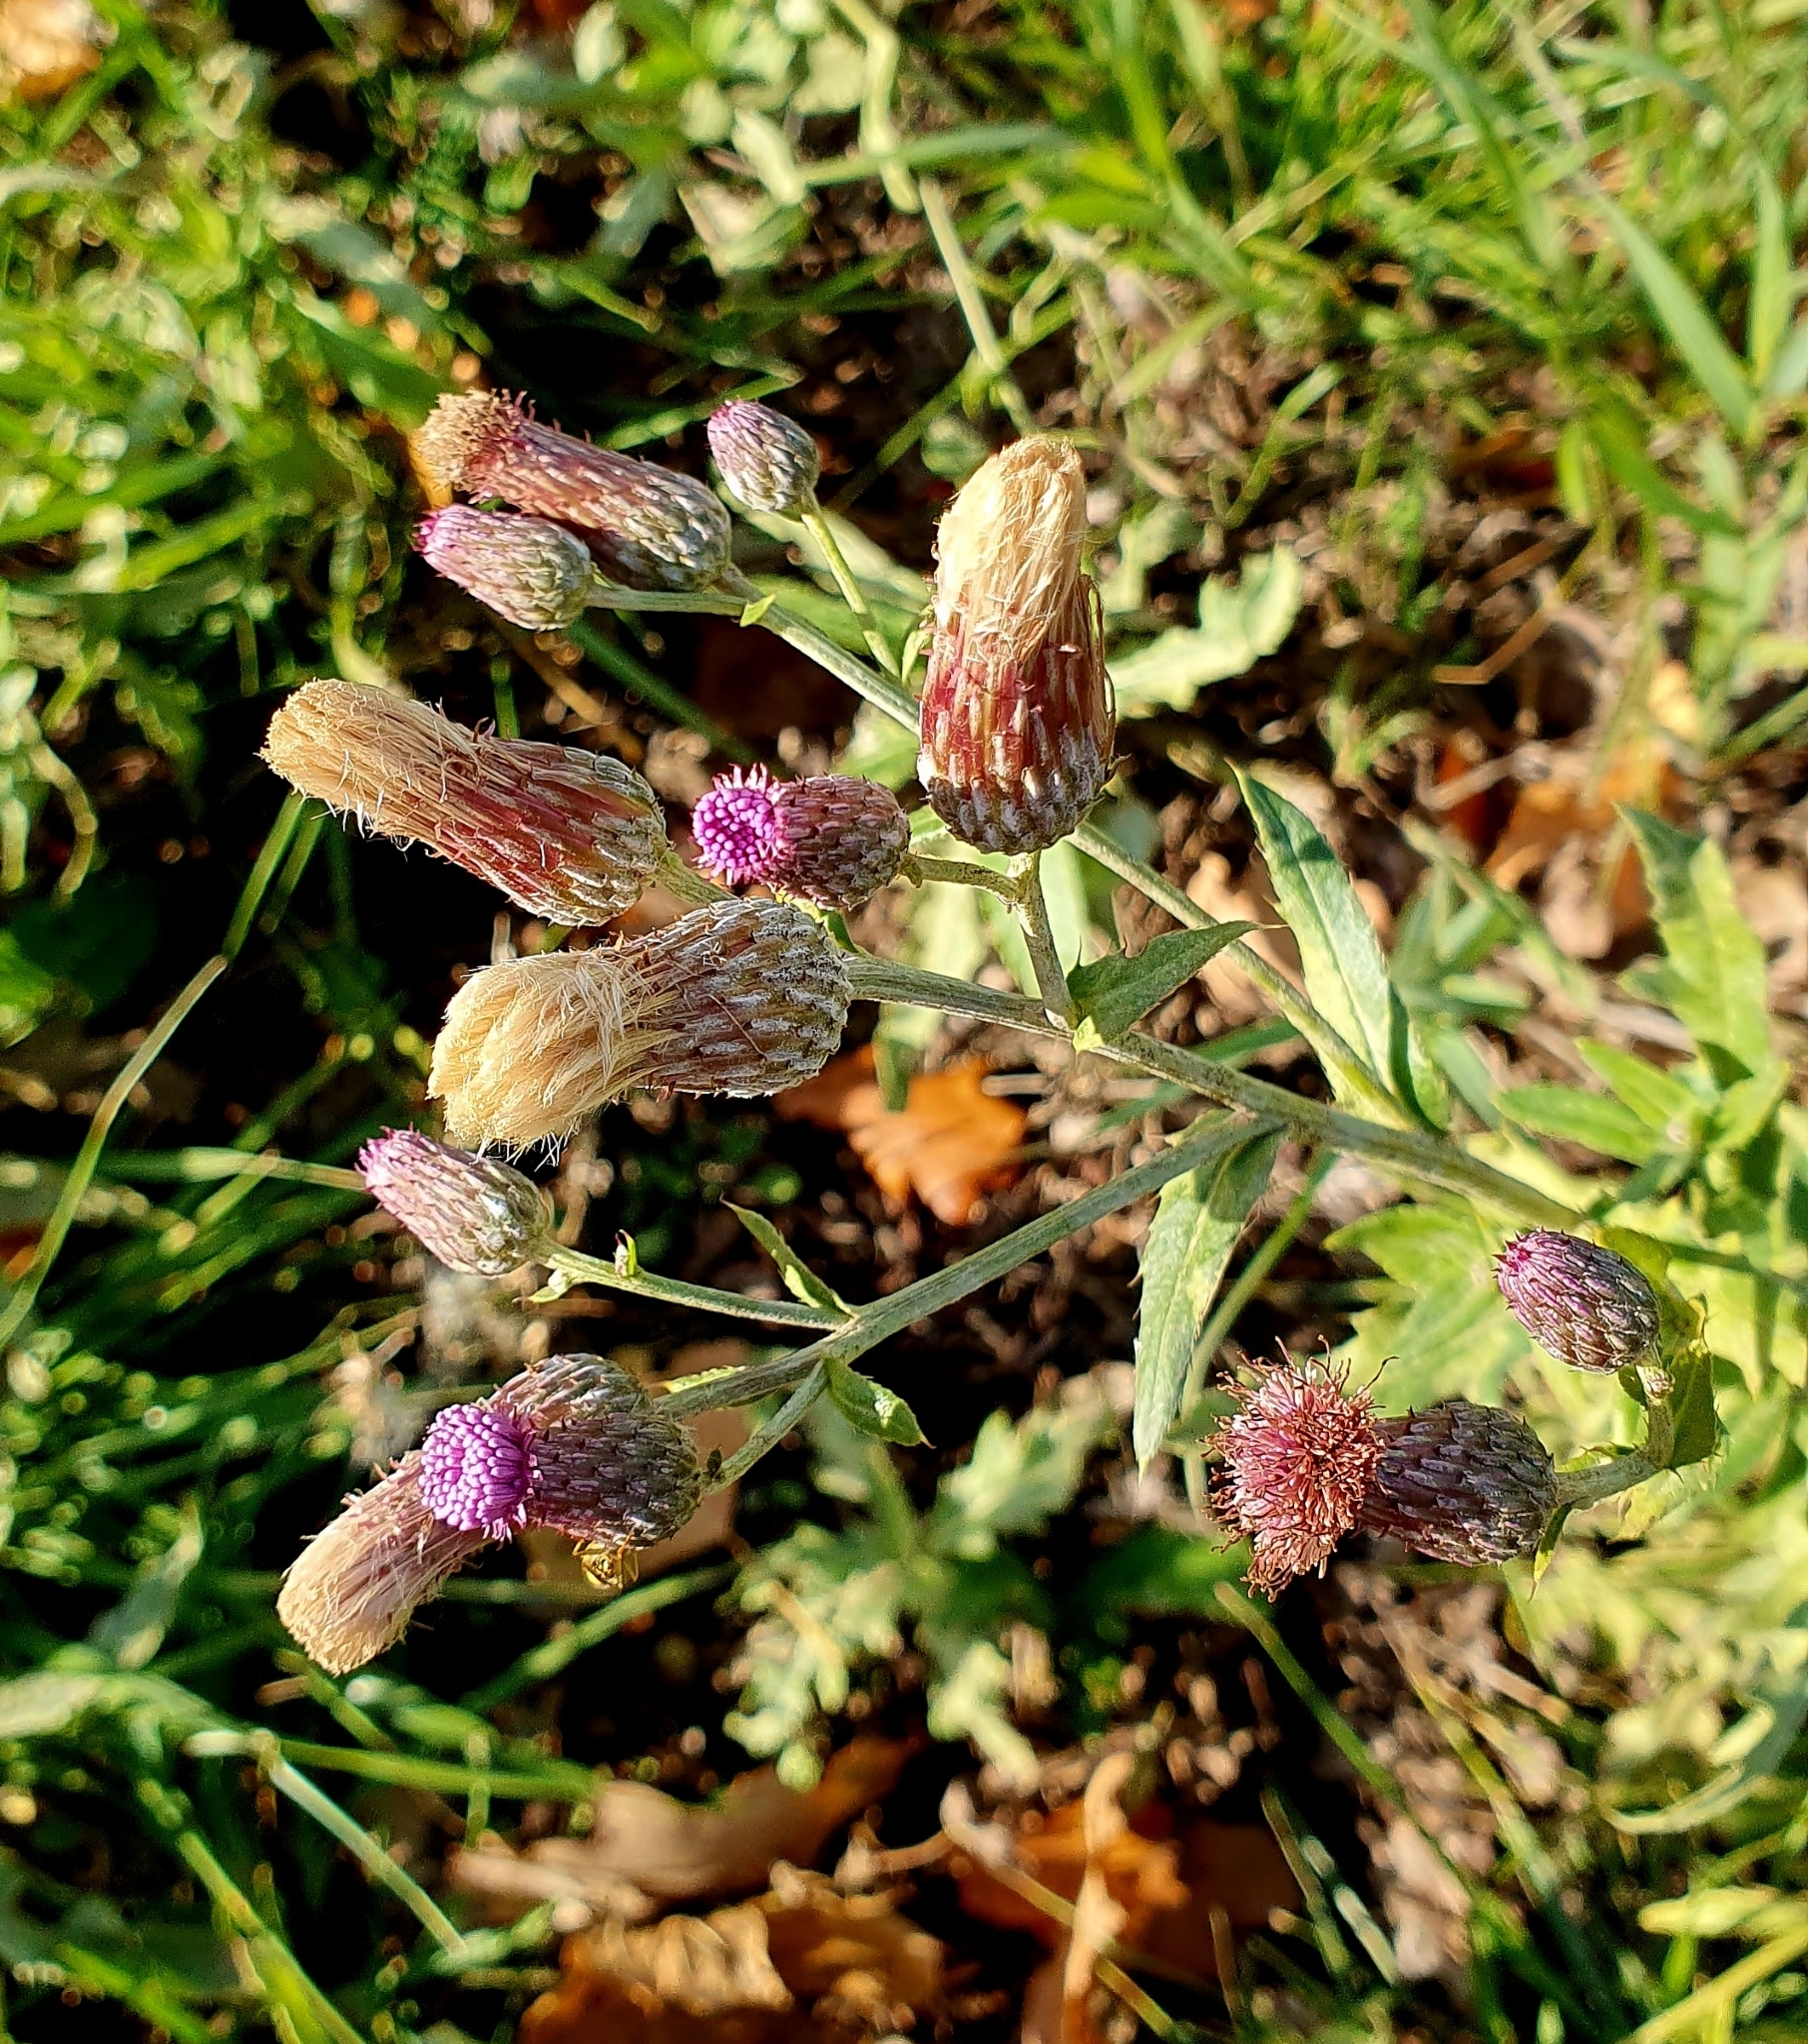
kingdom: Plantae
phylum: Tracheophyta
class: Magnoliopsida
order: Asterales
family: Asteraceae
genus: Cirsium
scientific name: Cirsium arvense
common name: Creeping thistle
